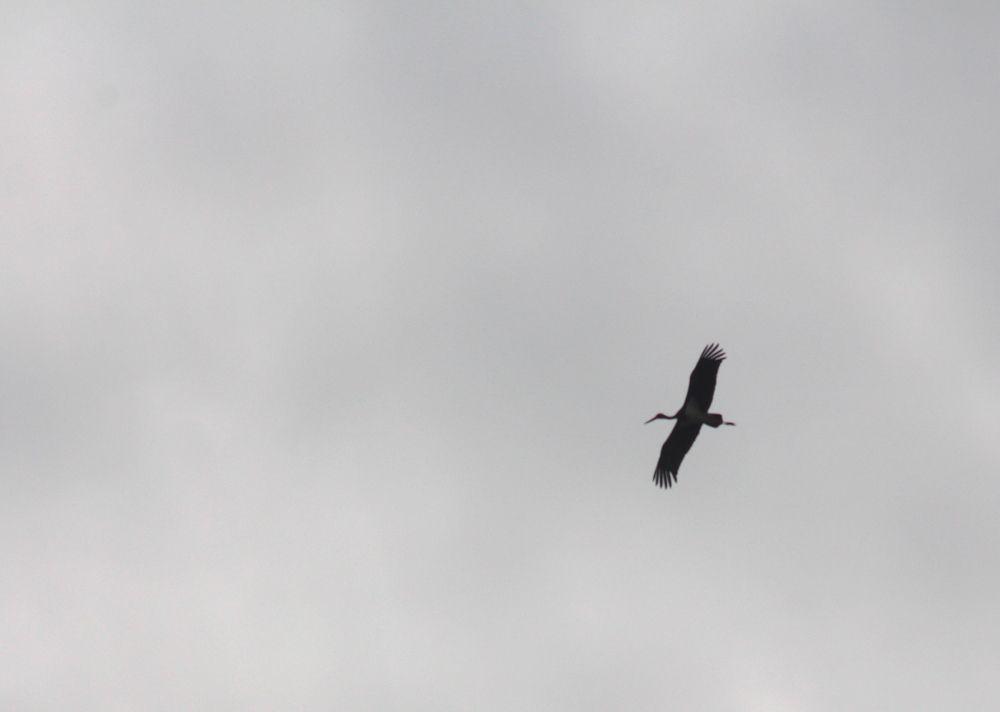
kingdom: Animalia
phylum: Chordata
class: Aves
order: Ciconiiformes
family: Ciconiidae
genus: Ciconia
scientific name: Ciconia nigra
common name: Black stork
